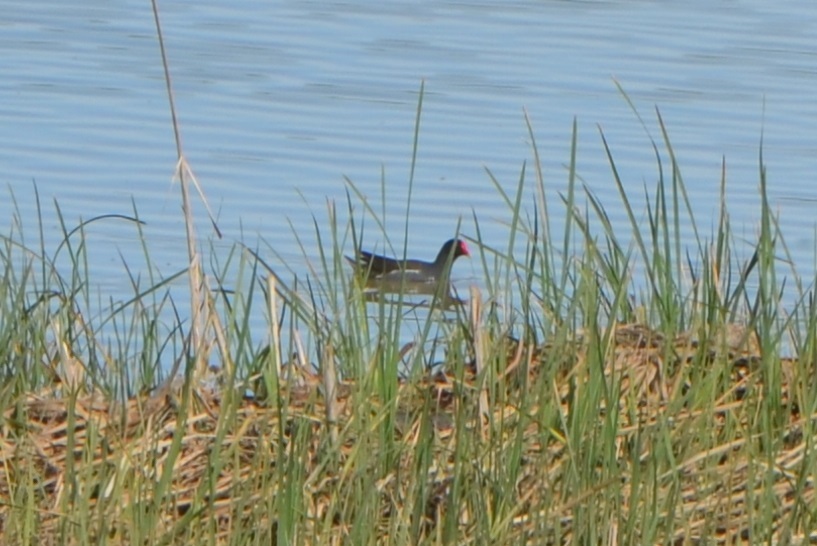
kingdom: Animalia
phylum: Chordata
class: Aves
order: Gruiformes
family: Rallidae
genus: Gallinula
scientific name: Gallinula chloropus
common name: Common moorhen
